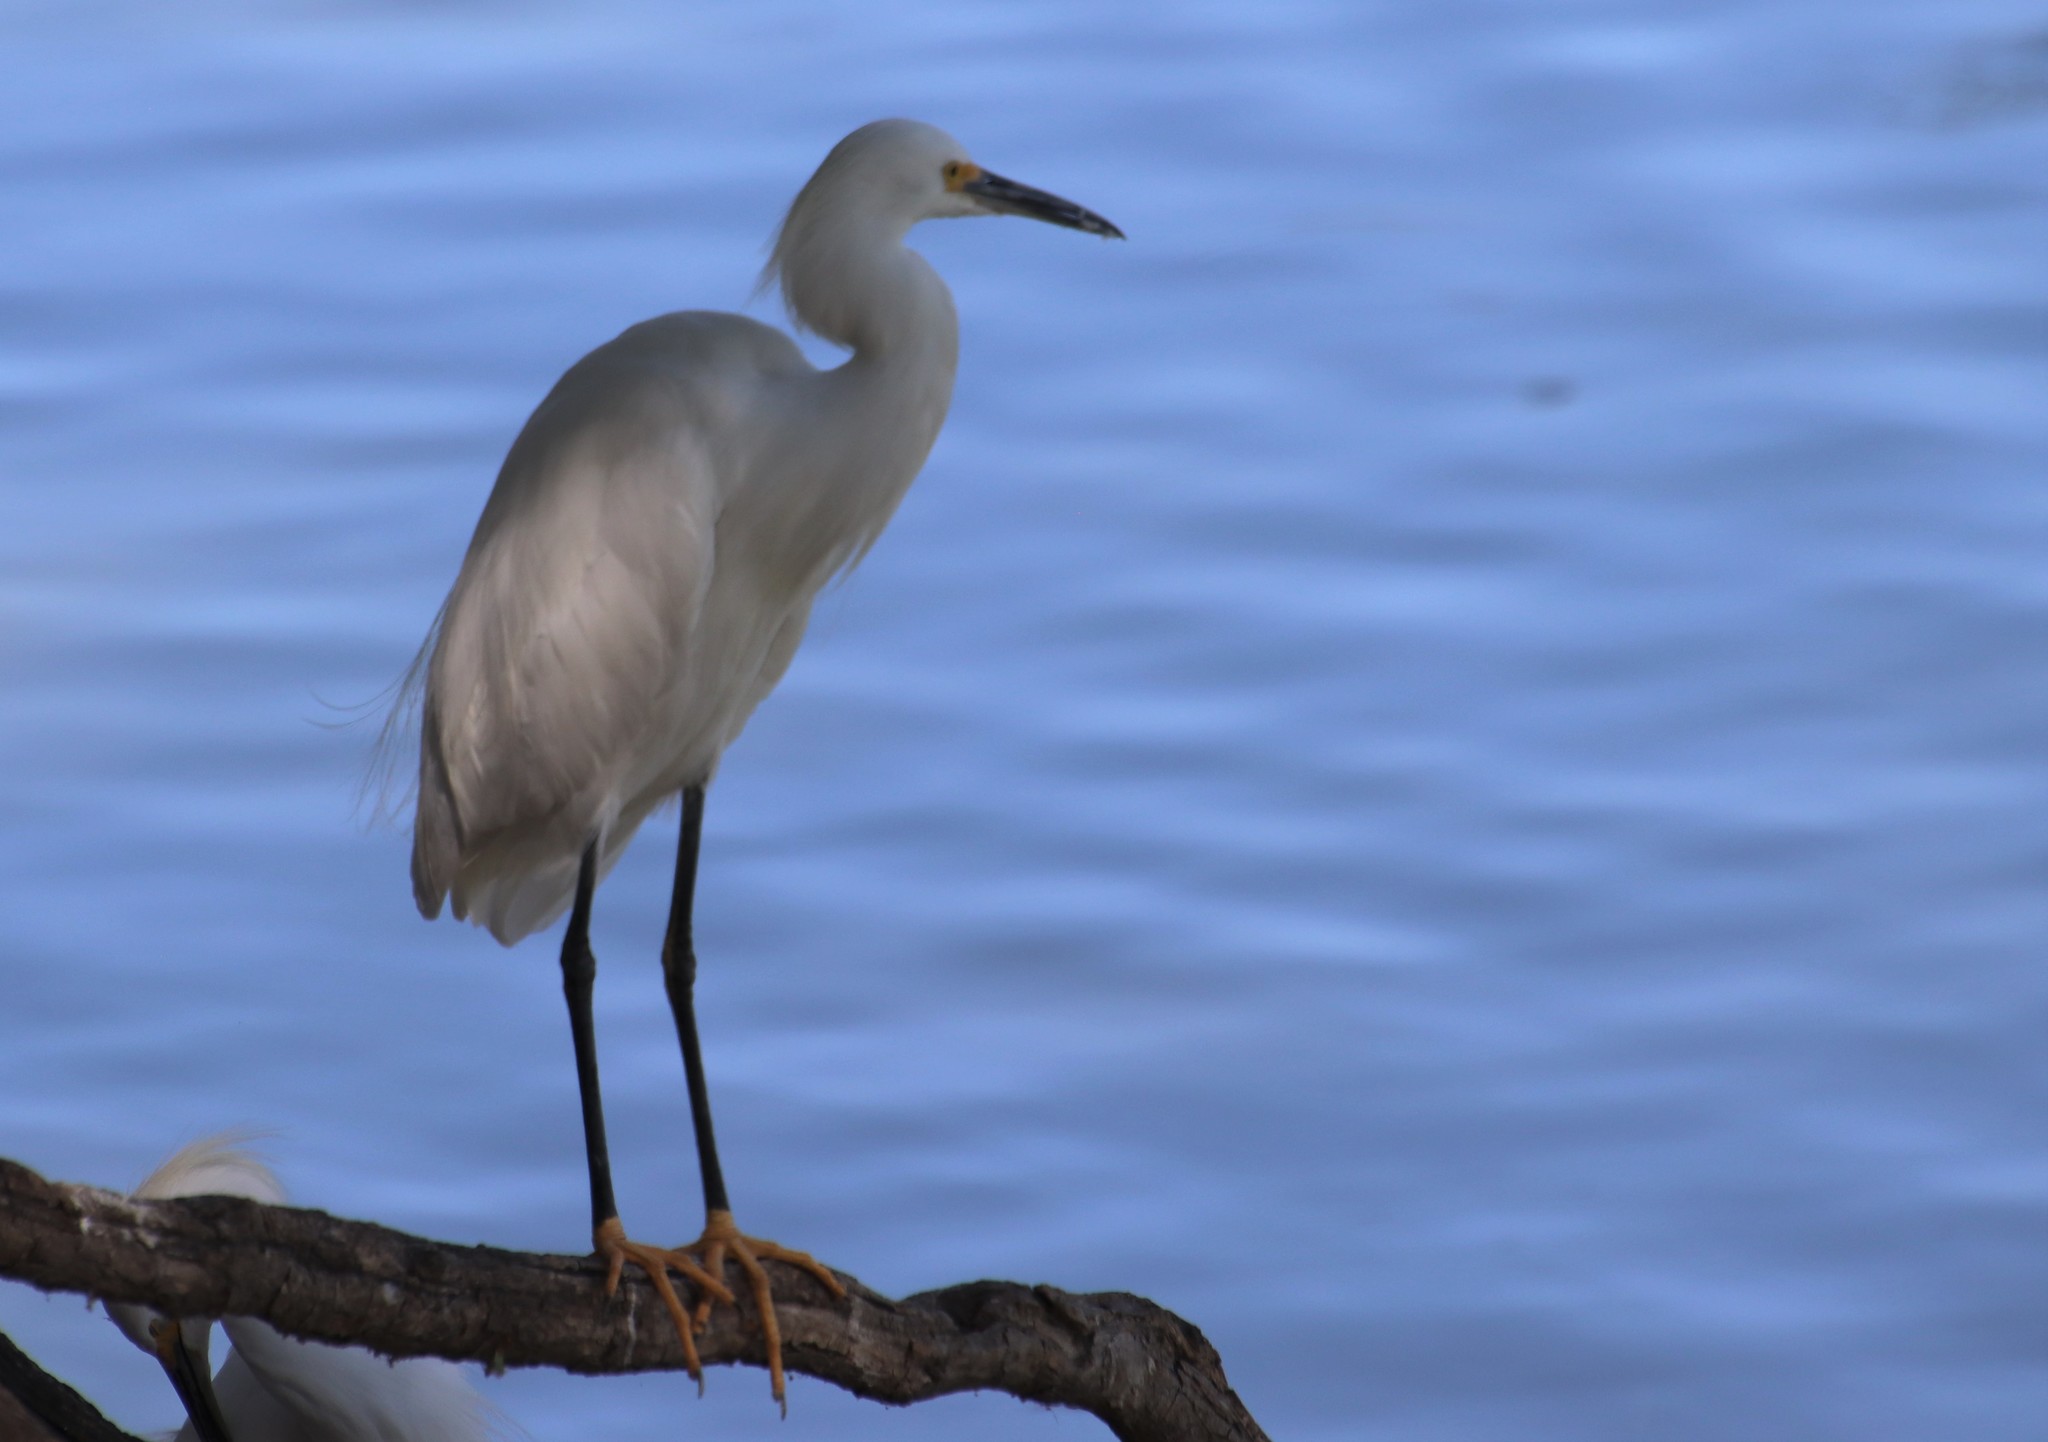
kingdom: Animalia
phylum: Chordata
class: Aves
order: Pelecaniformes
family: Ardeidae
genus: Egretta
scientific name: Egretta thula
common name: Snowy egret
